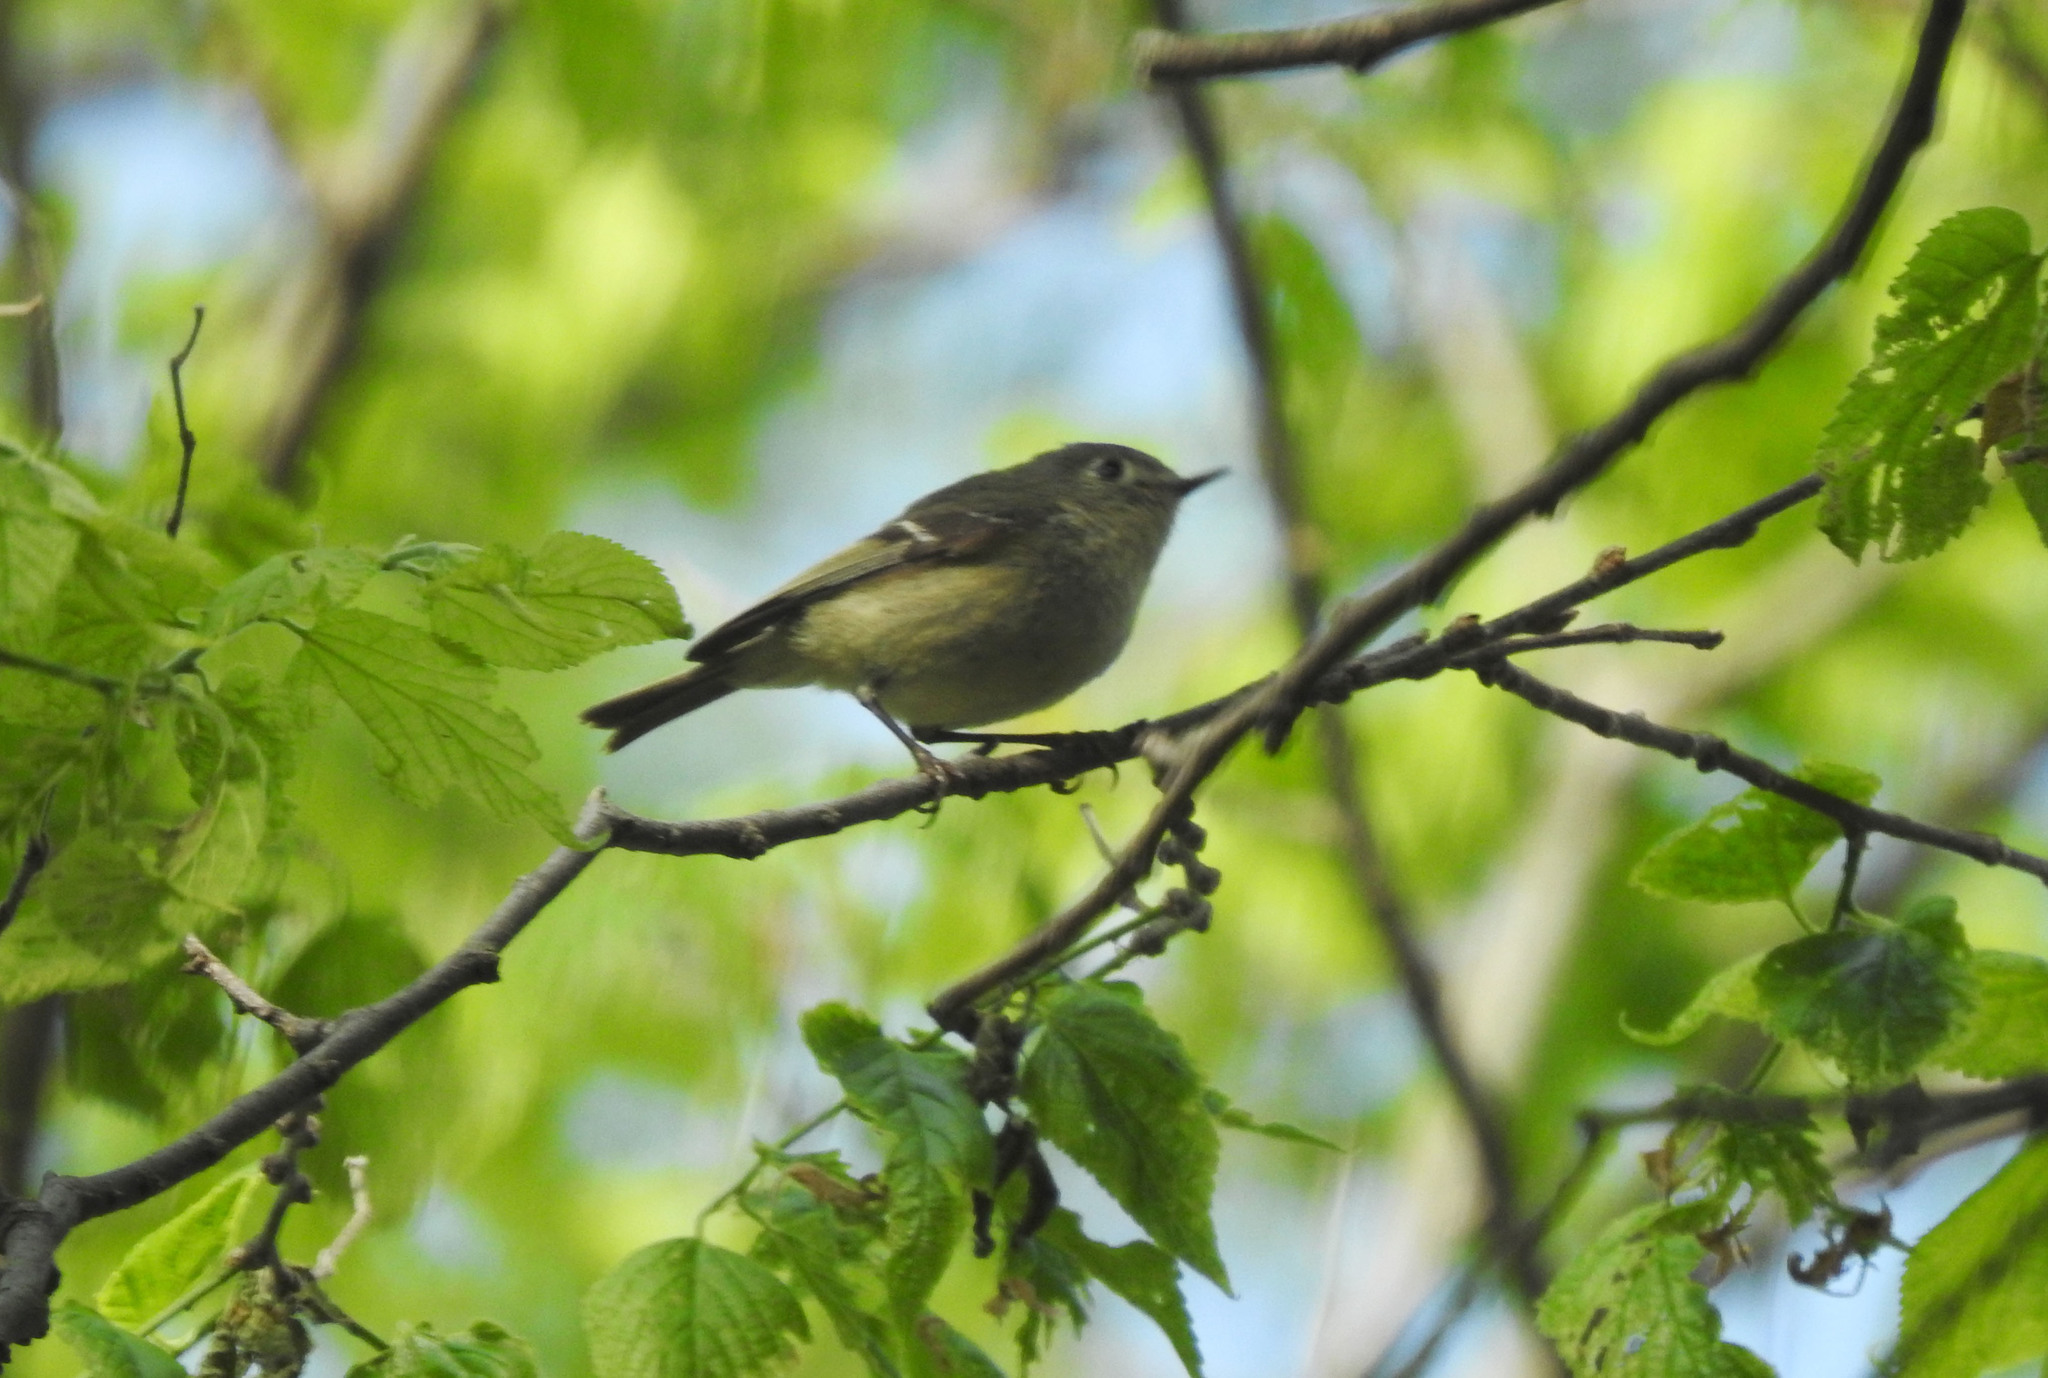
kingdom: Animalia
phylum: Chordata
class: Aves
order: Passeriformes
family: Regulidae
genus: Regulus
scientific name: Regulus calendula
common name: Ruby-crowned kinglet
